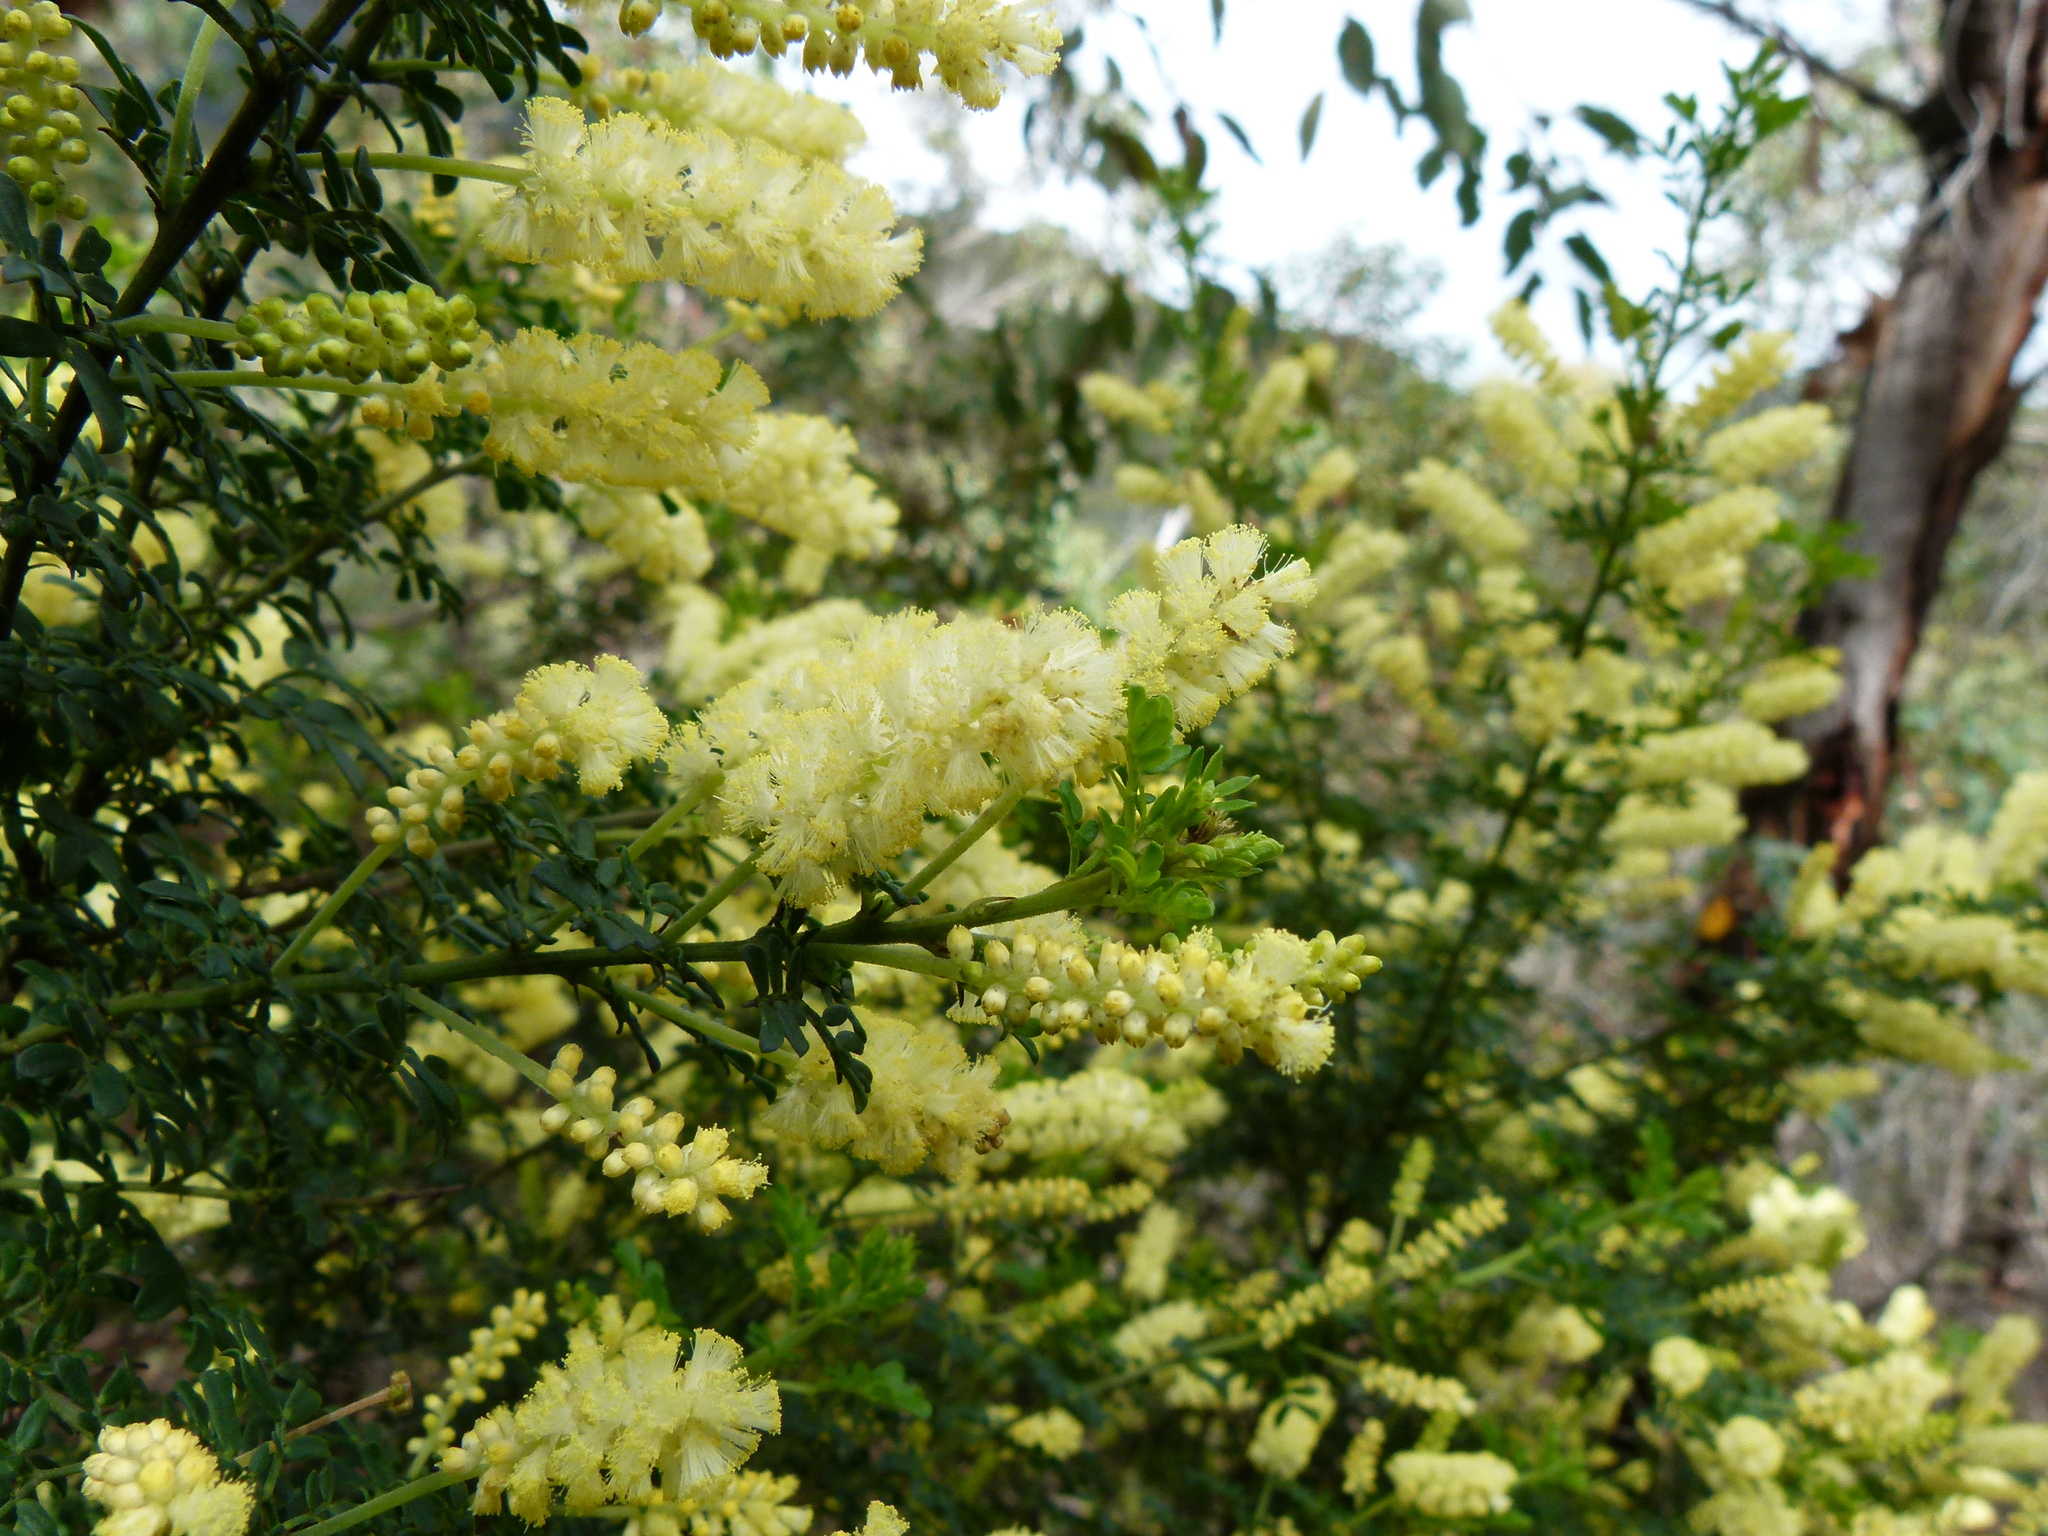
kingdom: Plantae
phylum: Tracheophyta
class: Magnoliopsida
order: Fabales
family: Fabaceae
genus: Acacia
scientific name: Acacia drummondii
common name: Drummond's wattle
